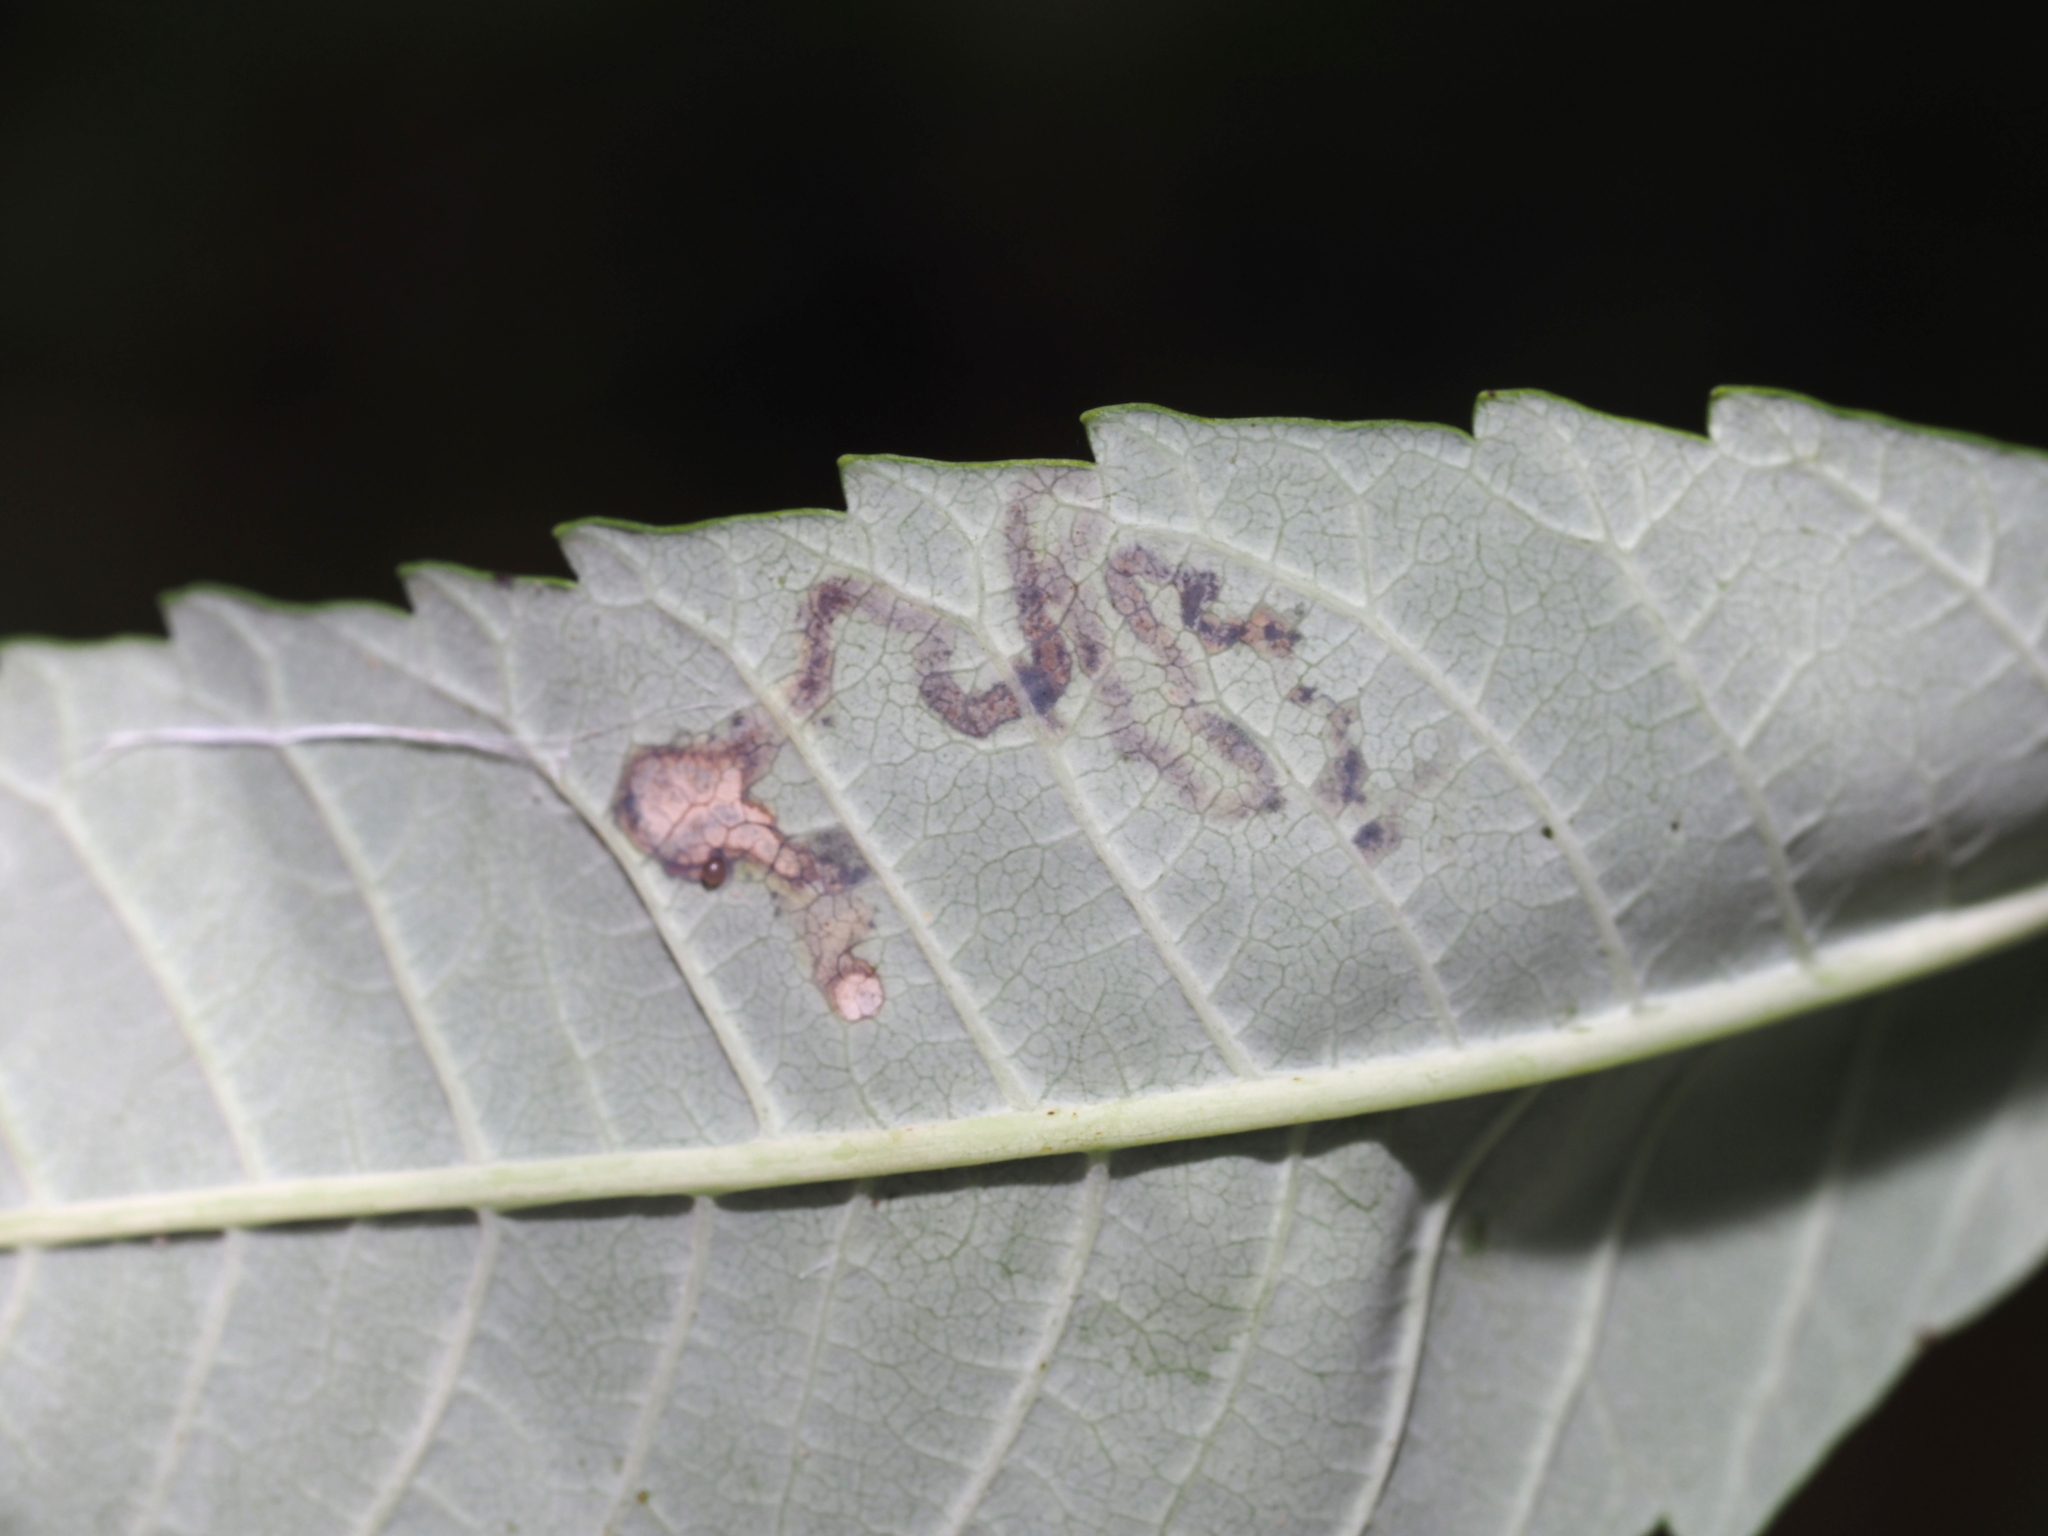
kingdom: Animalia
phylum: Arthropoda
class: Insecta
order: Lepidoptera
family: Nepticulidae
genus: Stigmella
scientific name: Stigmella intermedia
